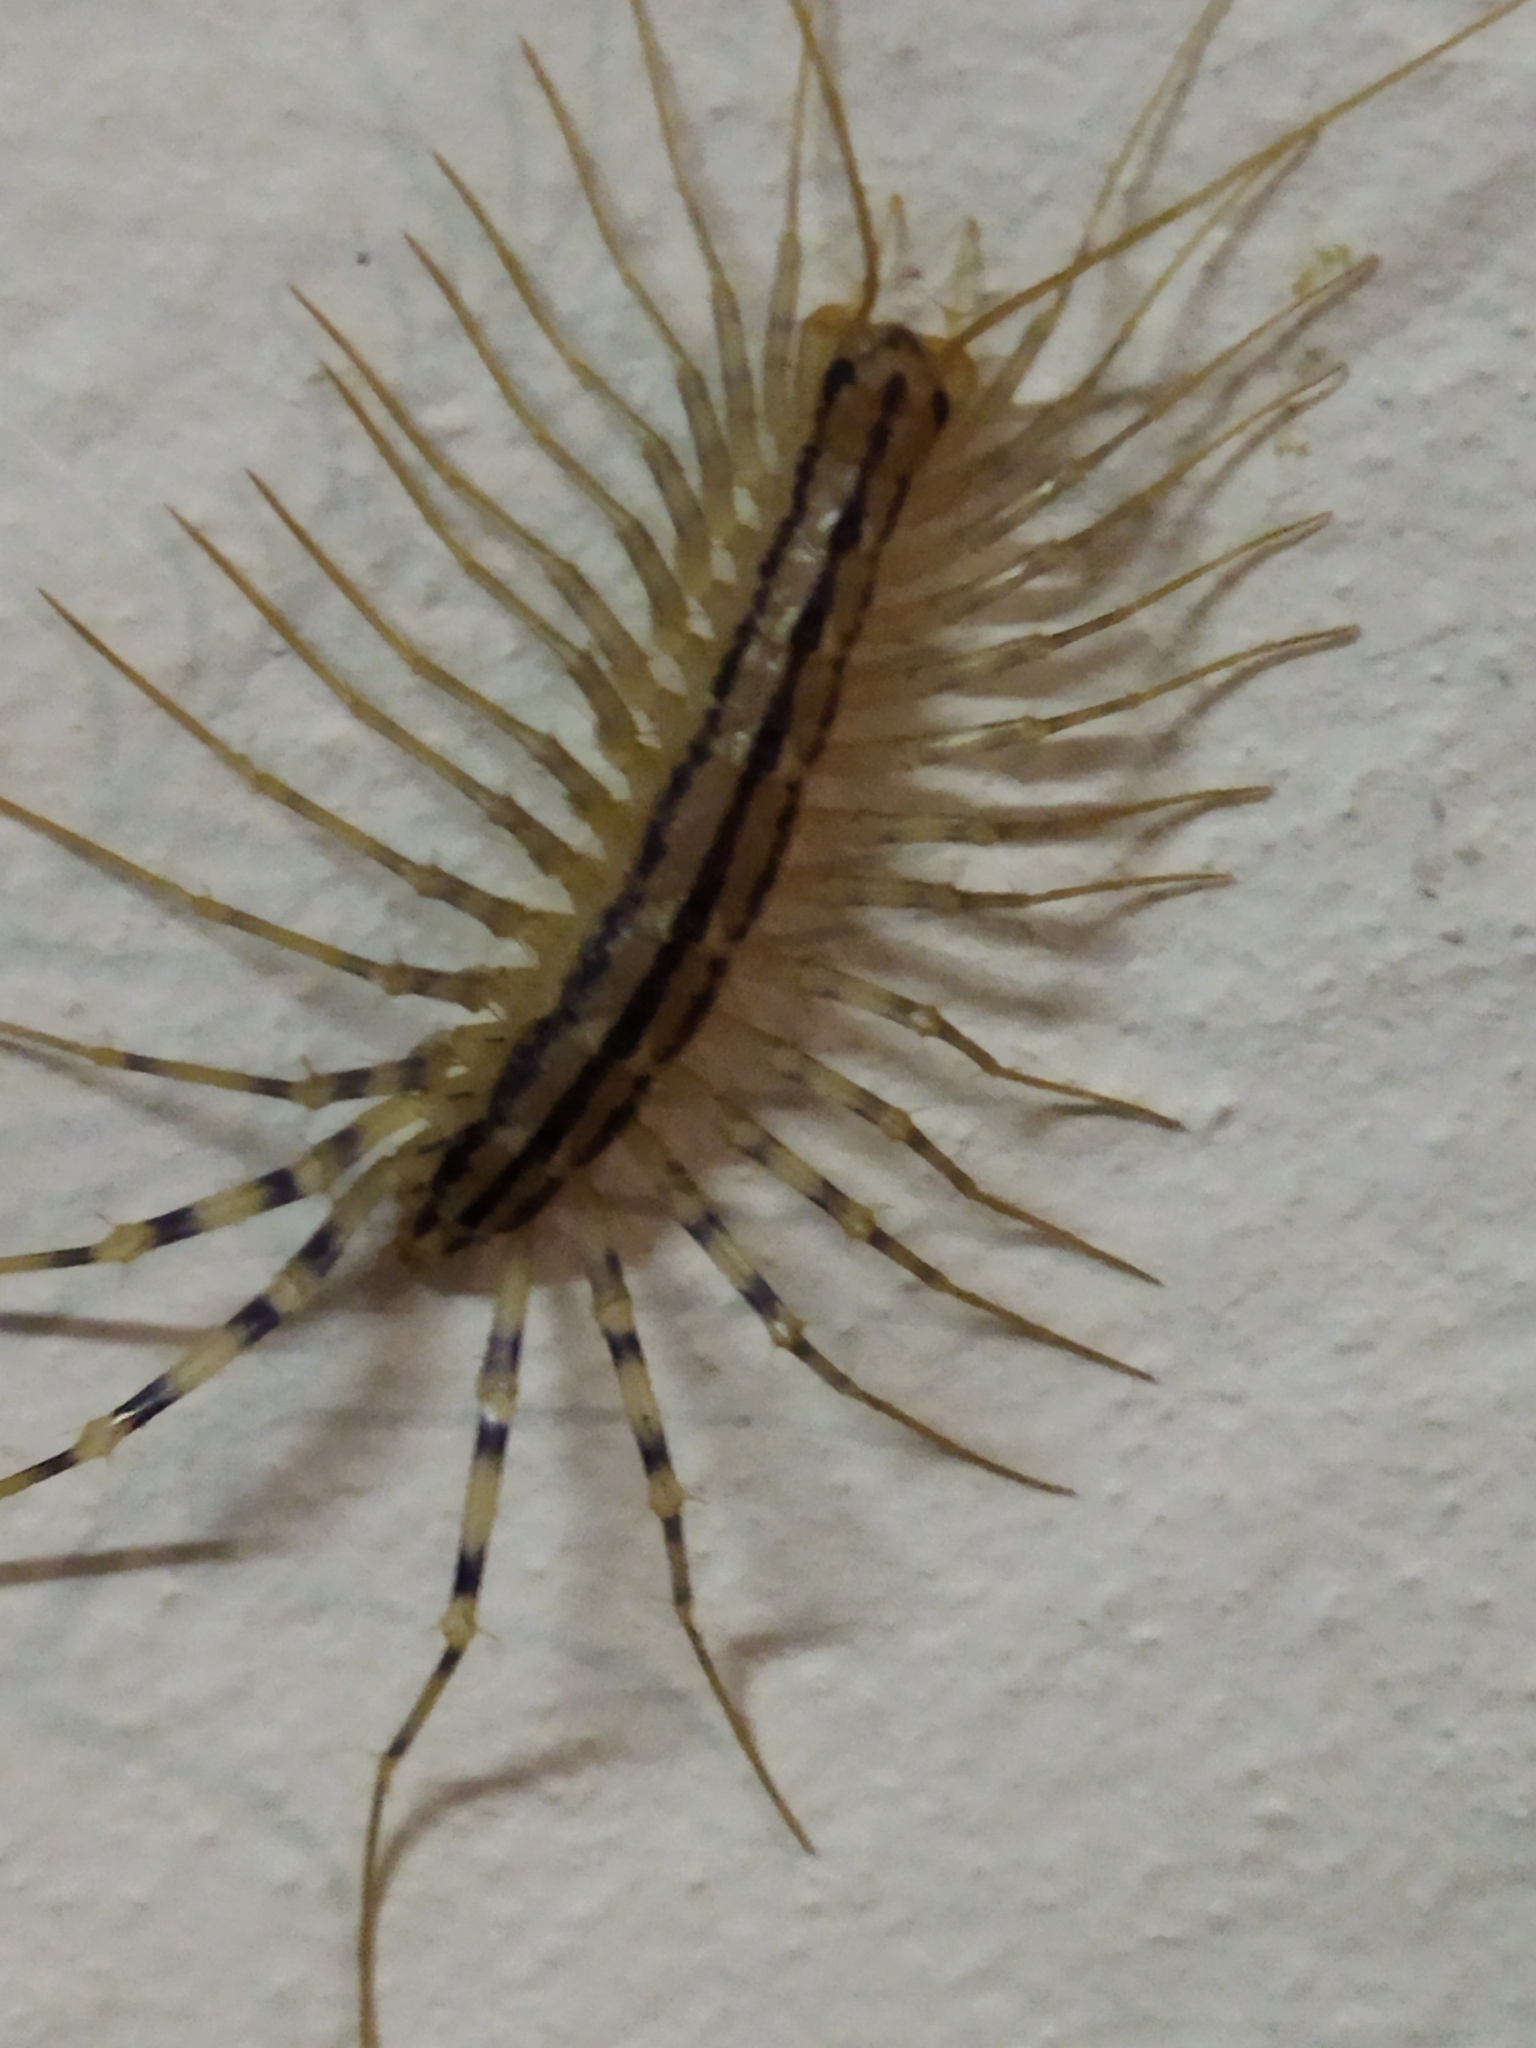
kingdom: Animalia
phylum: Arthropoda
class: Chilopoda
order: Scutigeromorpha
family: Scutigeridae
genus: Scutigera
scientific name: Scutigera coleoptrata
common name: House centipede
